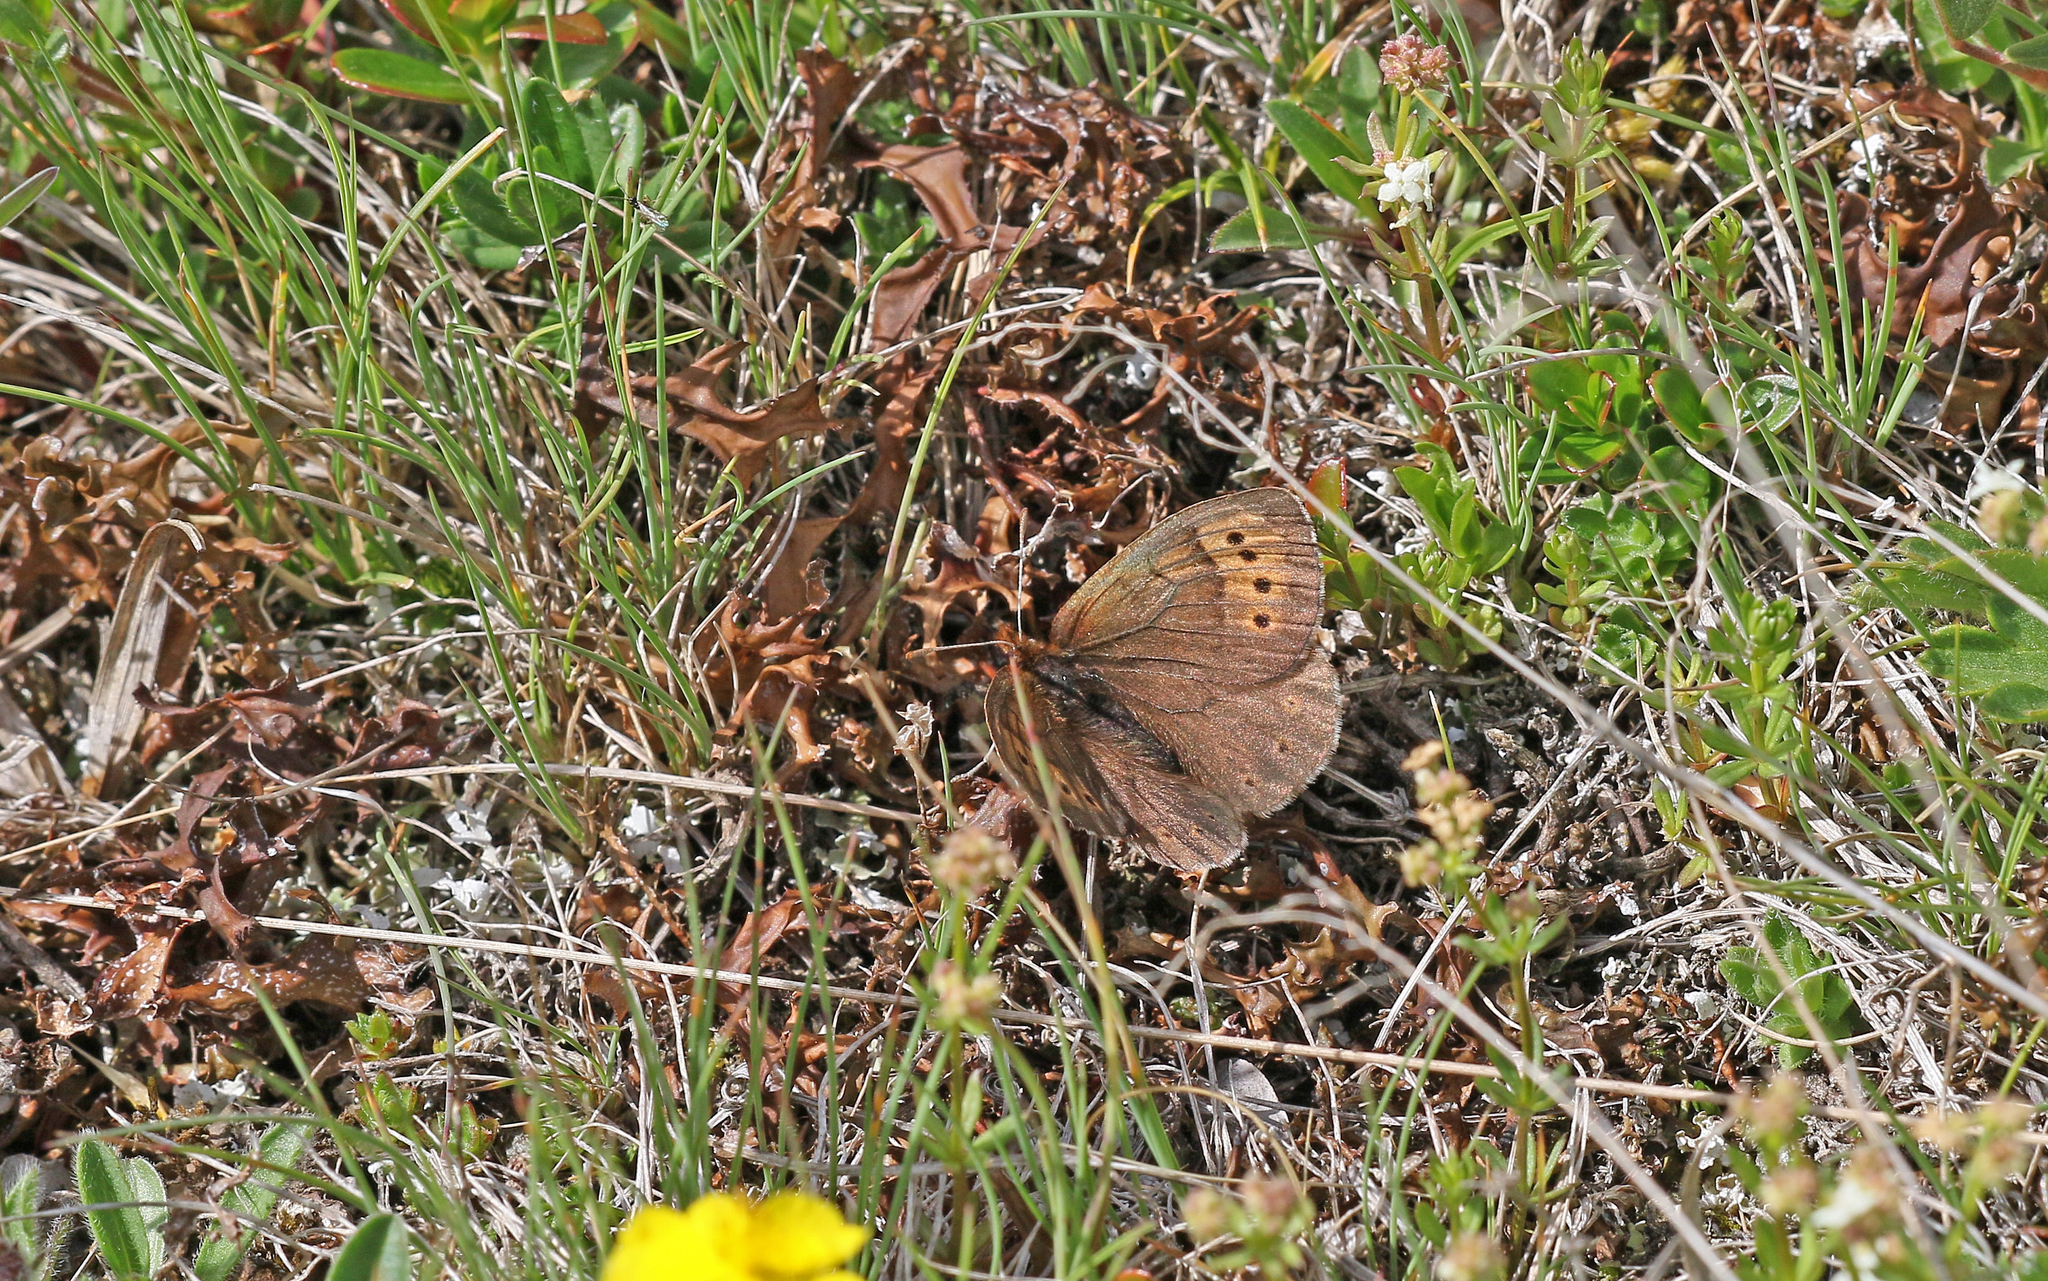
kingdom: Animalia
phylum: Arthropoda
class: Insecta
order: Lepidoptera
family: Nymphalidae
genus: Erebia
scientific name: Erebia pandrose
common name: Dewy ringlet
